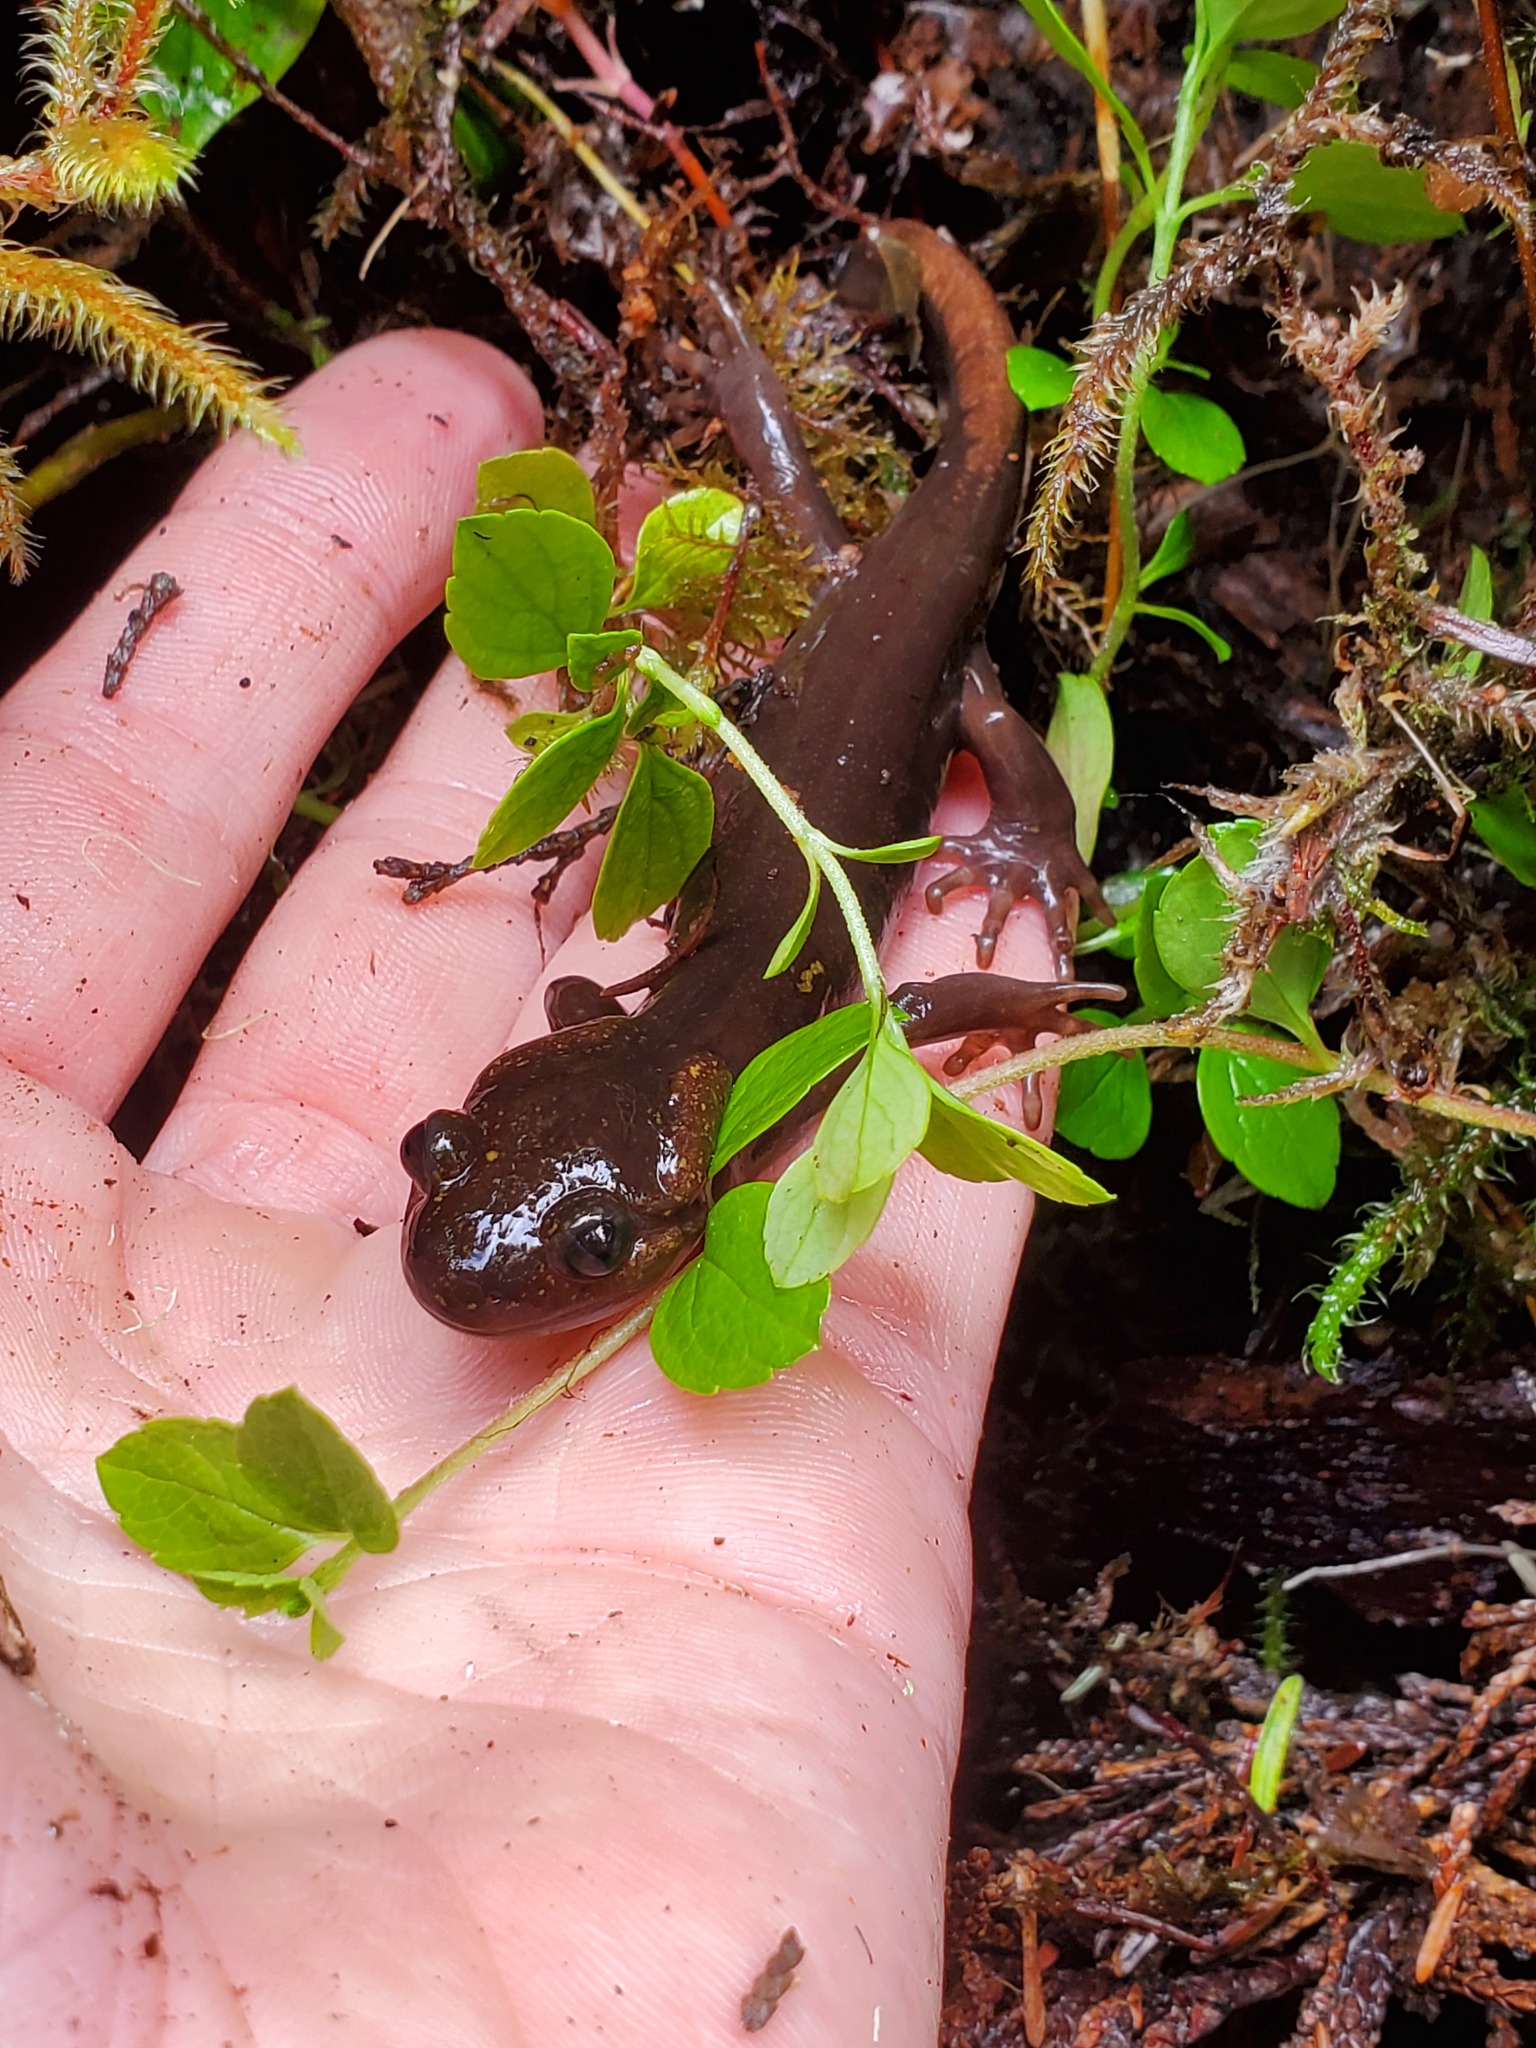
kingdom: Animalia
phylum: Chordata
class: Amphibia
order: Caudata
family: Ambystomatidae
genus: Ambystoma
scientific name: Ambystoma gracile
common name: Northwestern salamander
